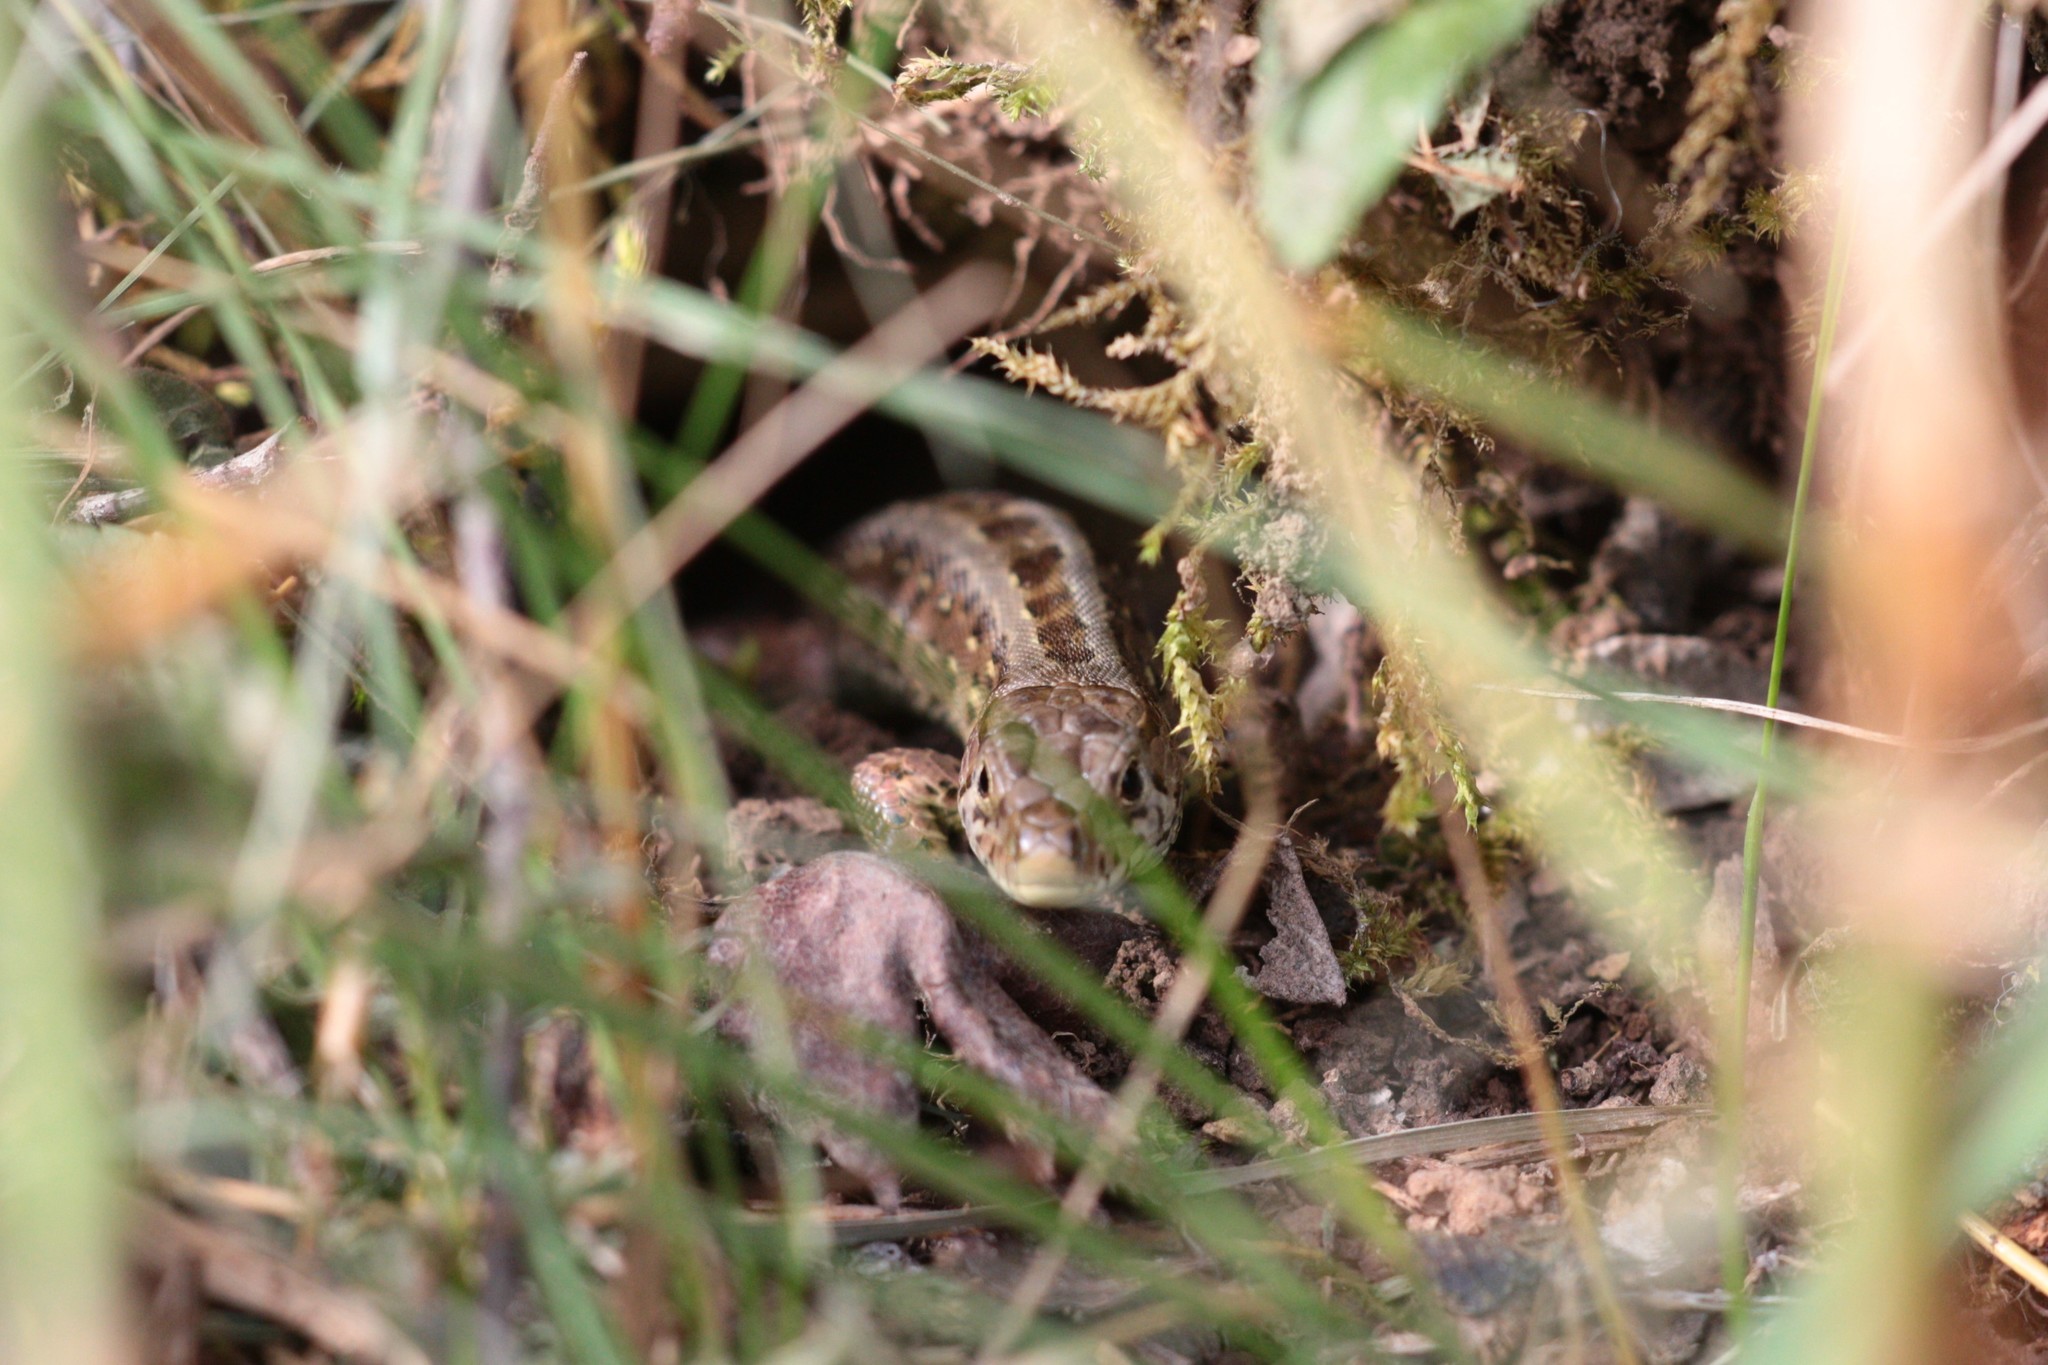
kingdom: Animalia
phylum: Chordata
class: Squamata
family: Lacertidae
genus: Lacerta
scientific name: Lacerta agilis
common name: Sand lizard
